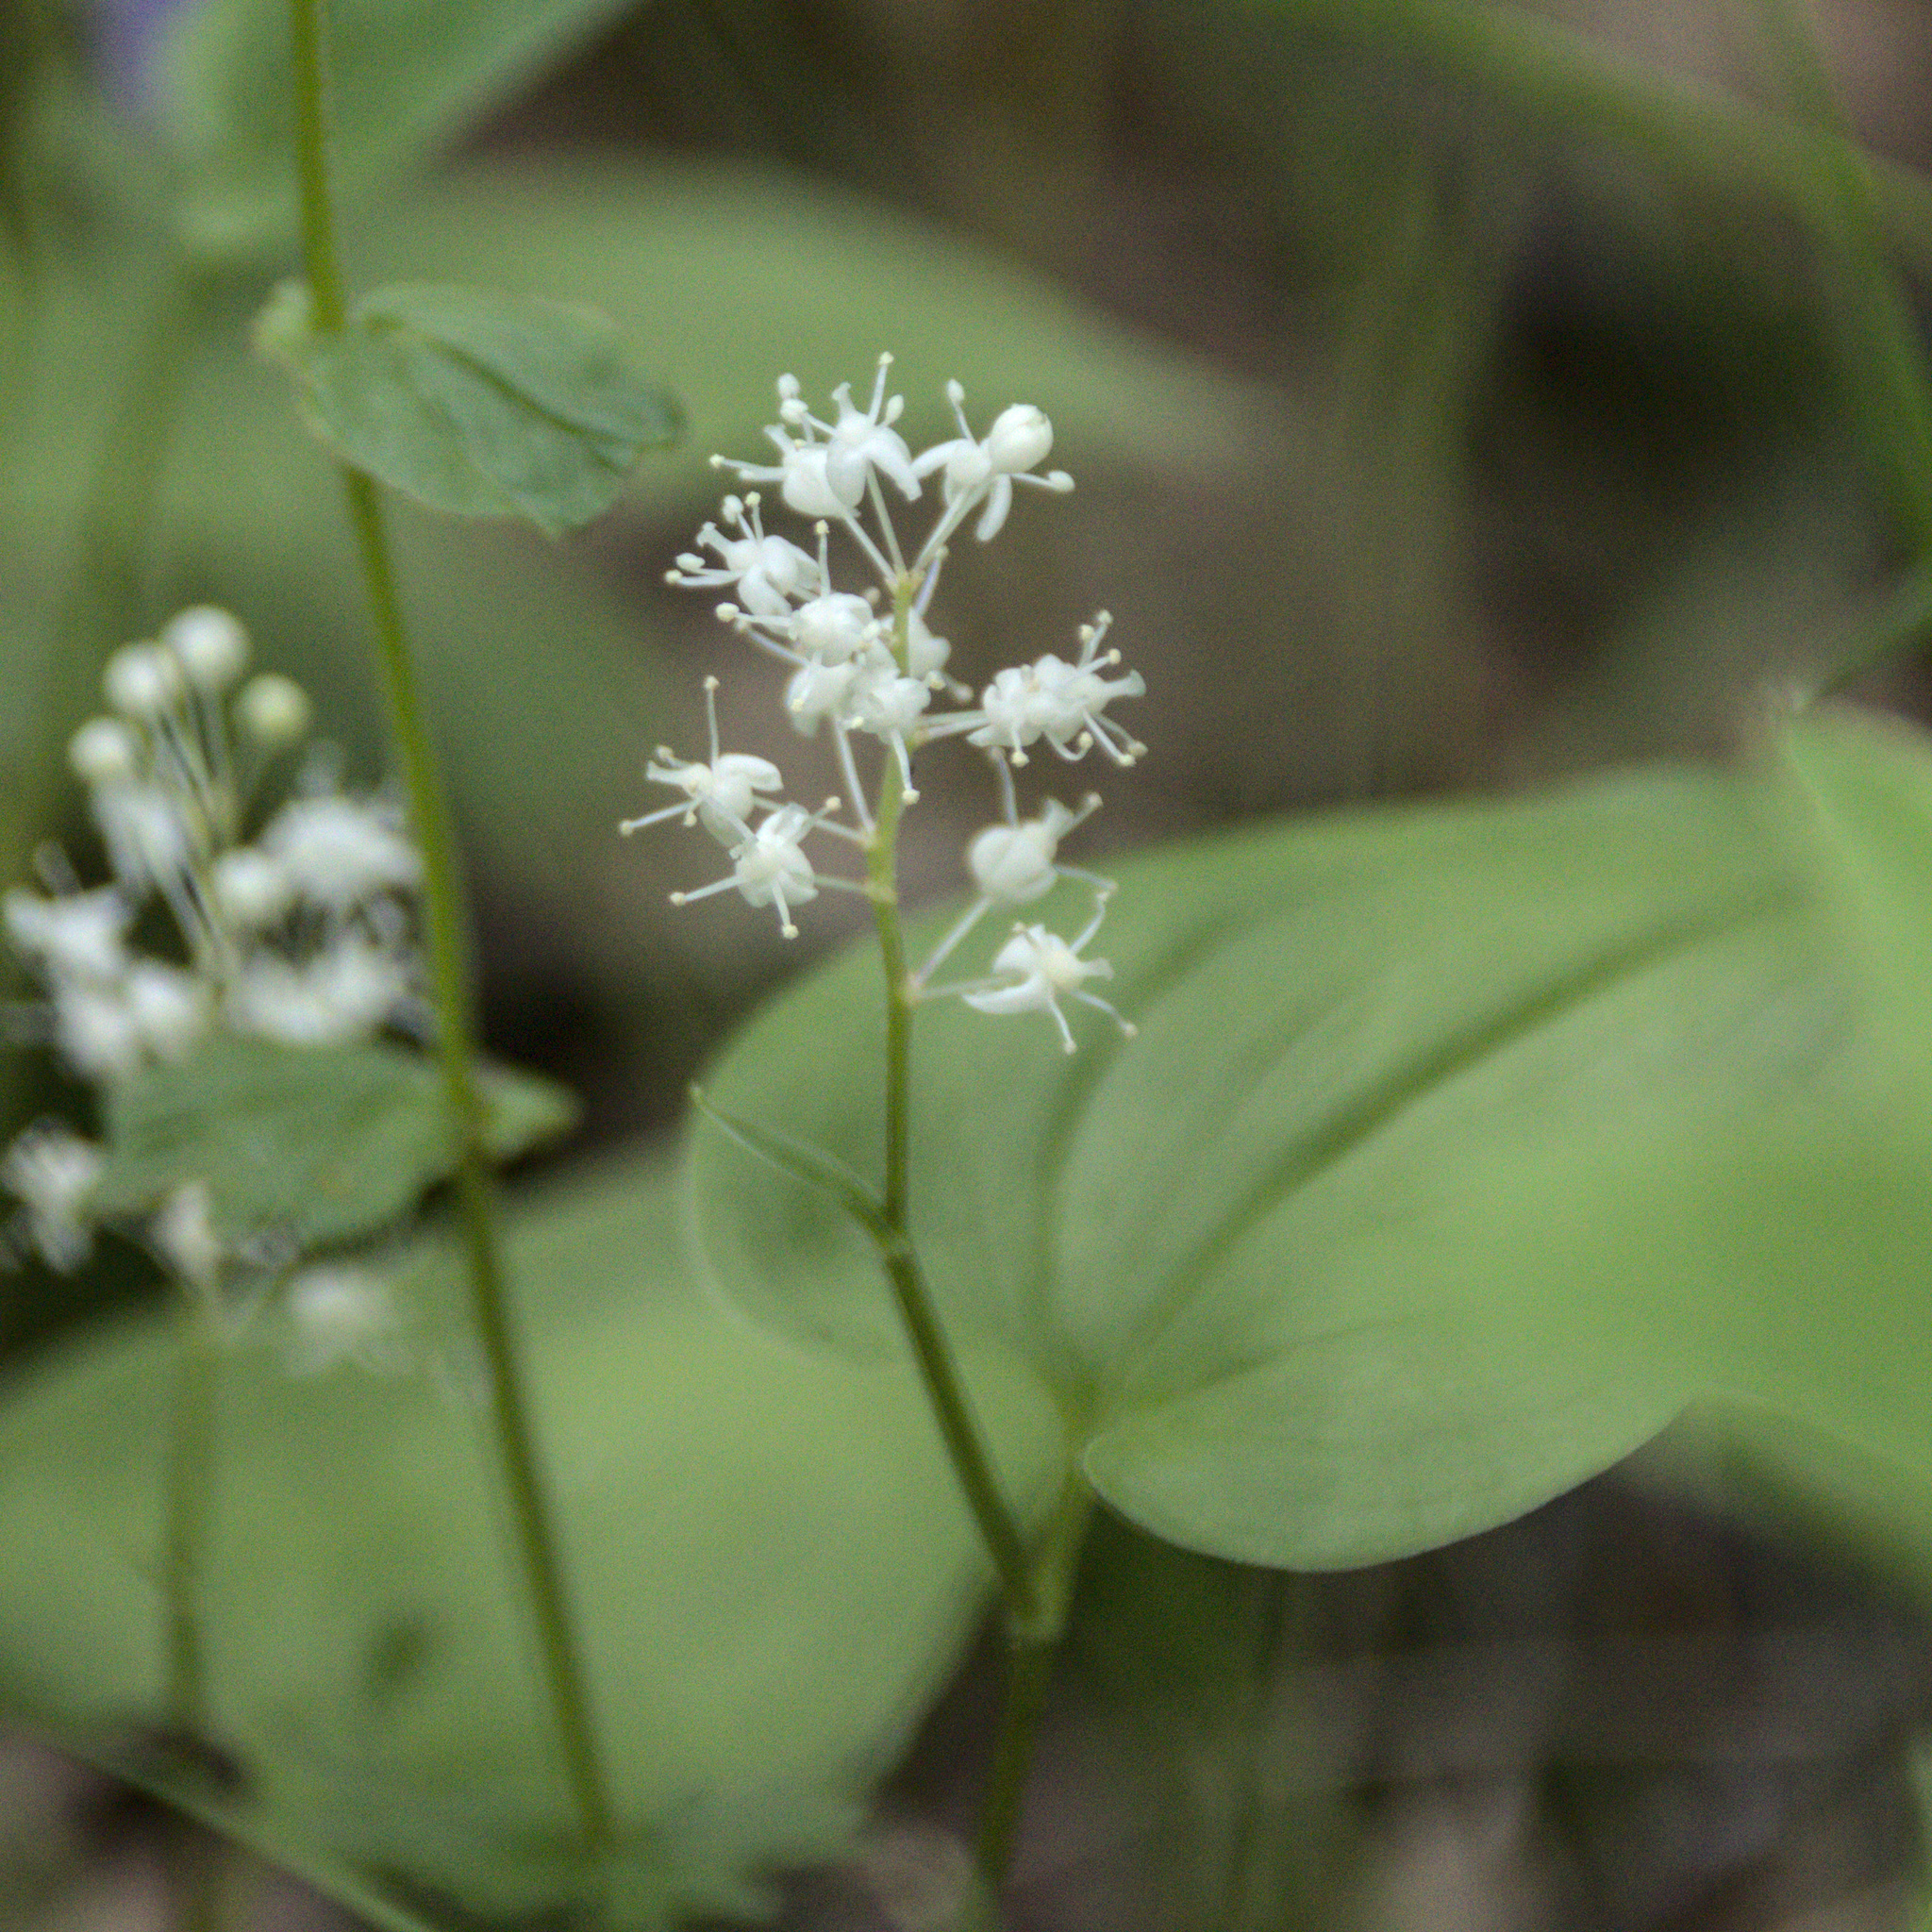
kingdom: Plantae
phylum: Tracheophyta
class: Liliopsida
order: Asparagales
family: Asparagaceae
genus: Maianthemum
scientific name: Maianthemum bifolium
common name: May lily
